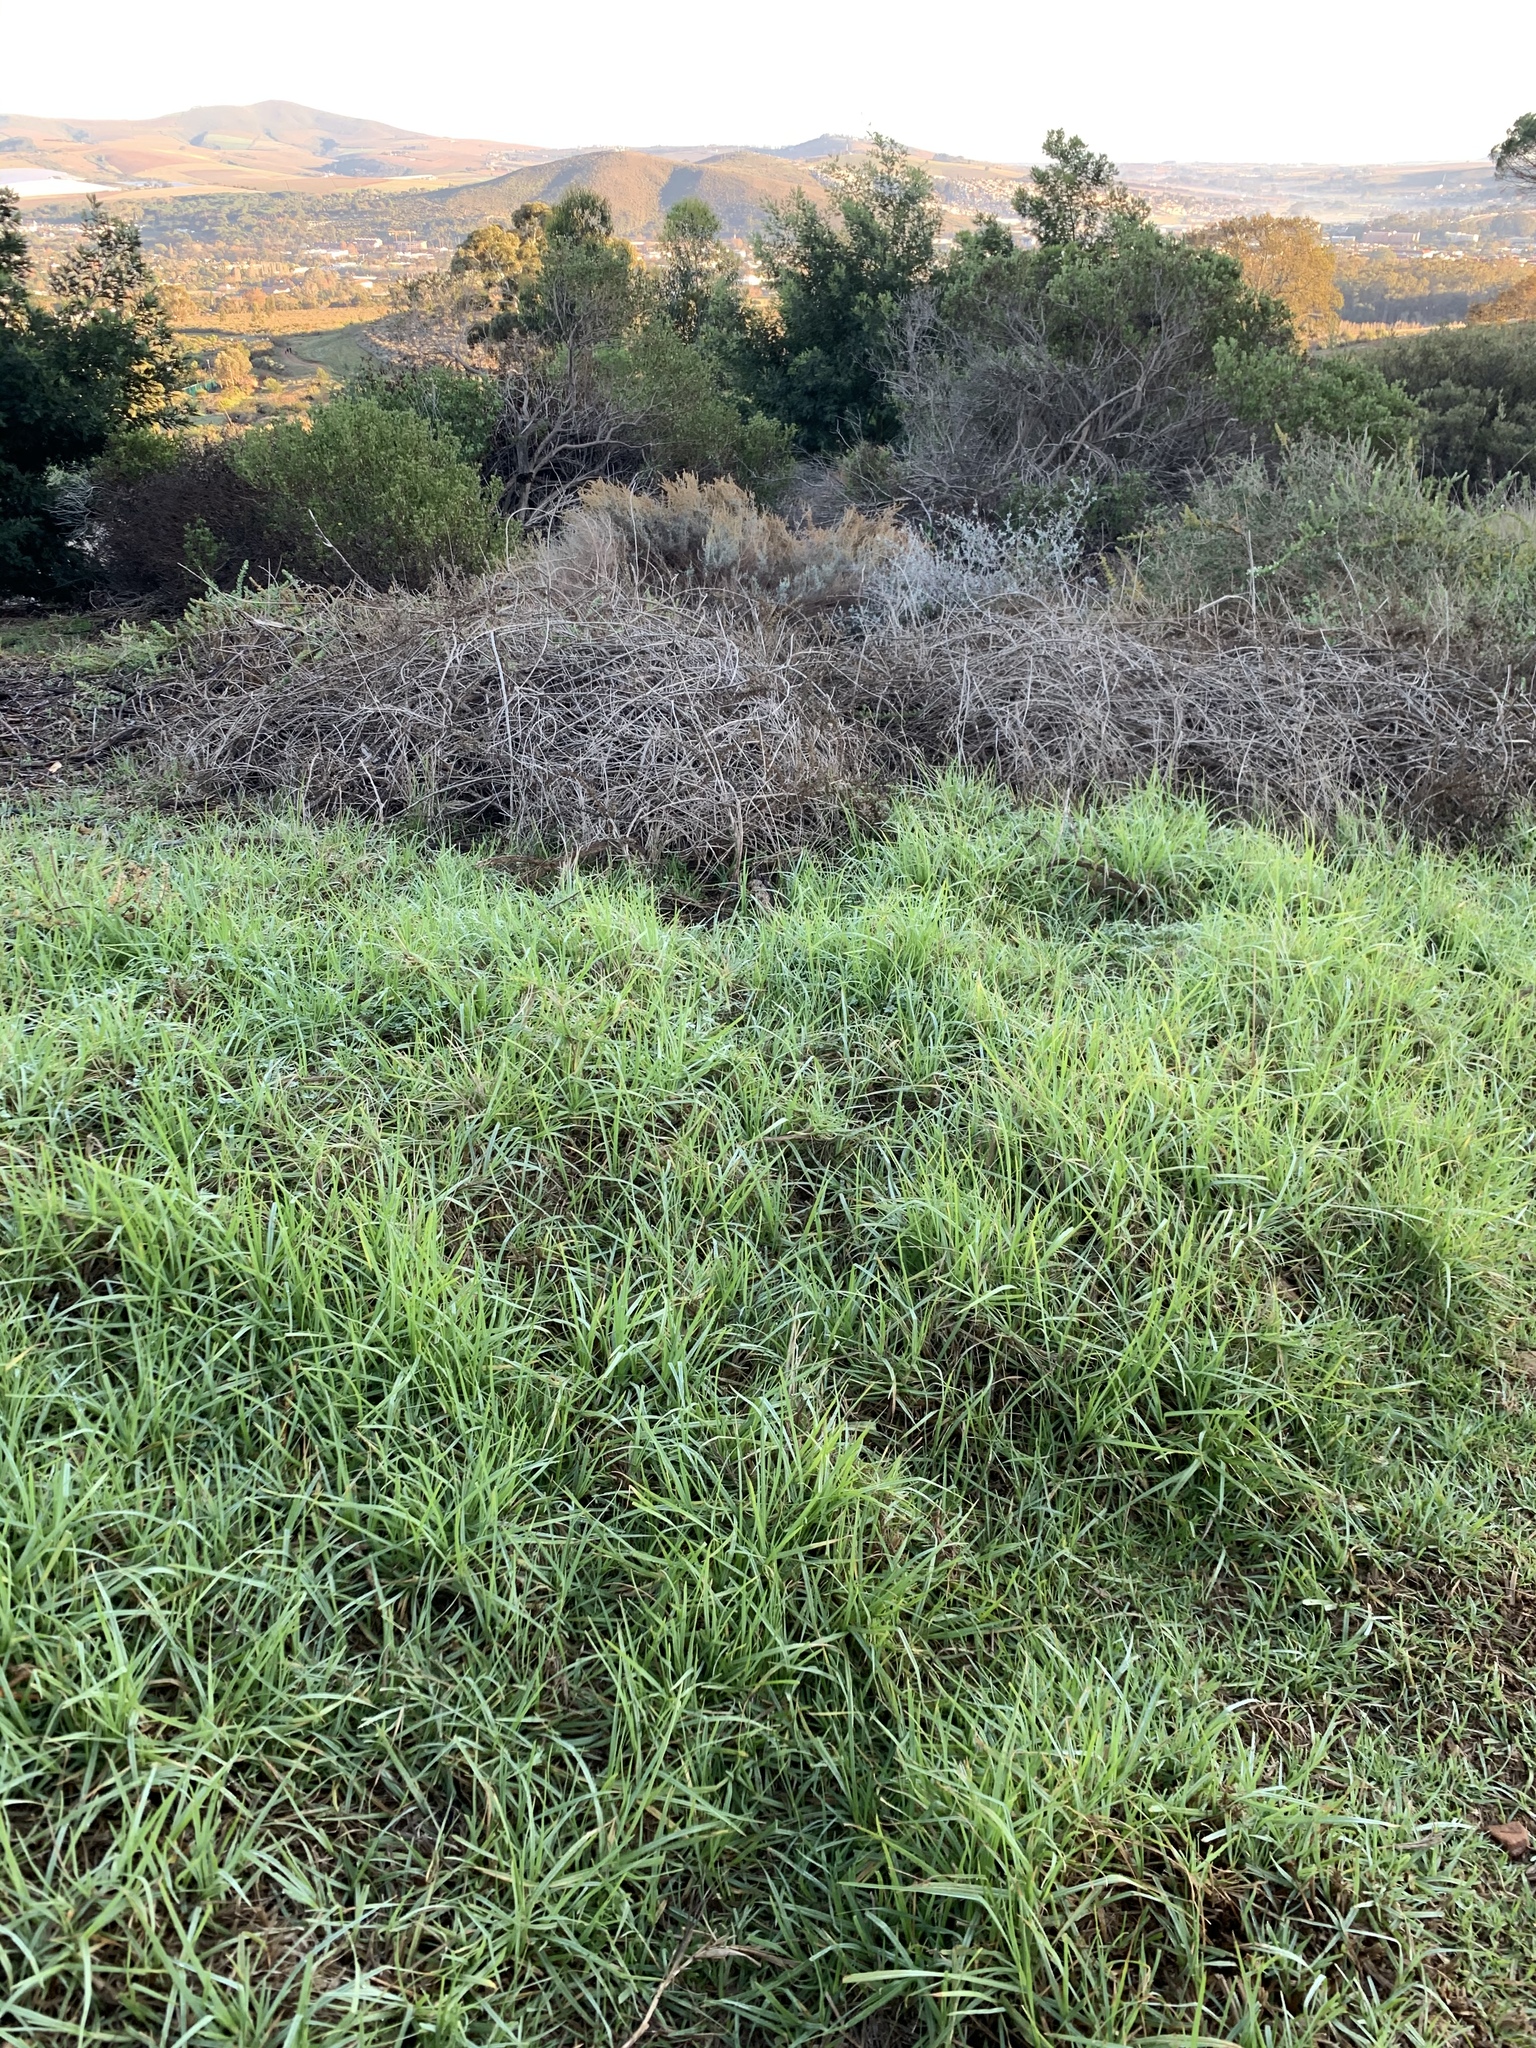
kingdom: Plantae
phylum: Tracheophyta
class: Liliopsida
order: Poales
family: Poaceae
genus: Cenchrus
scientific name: Cenchrus clandestinus
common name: Kikuyugrass
